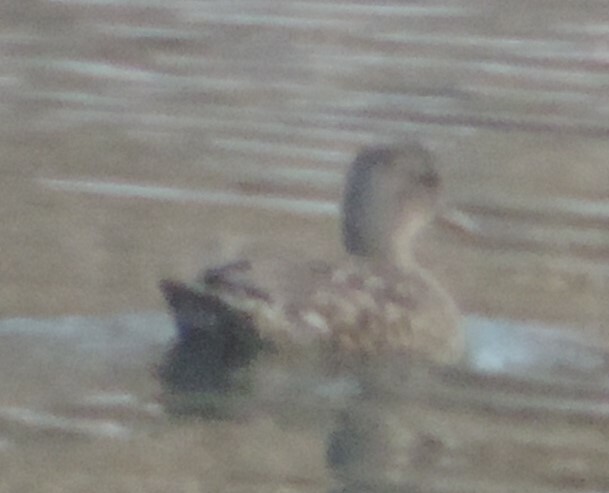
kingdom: Animalia
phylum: Chordata
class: Aves
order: Anseriformes
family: Anatidae
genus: Anas
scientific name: Anas crecca
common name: Eurasian teal
